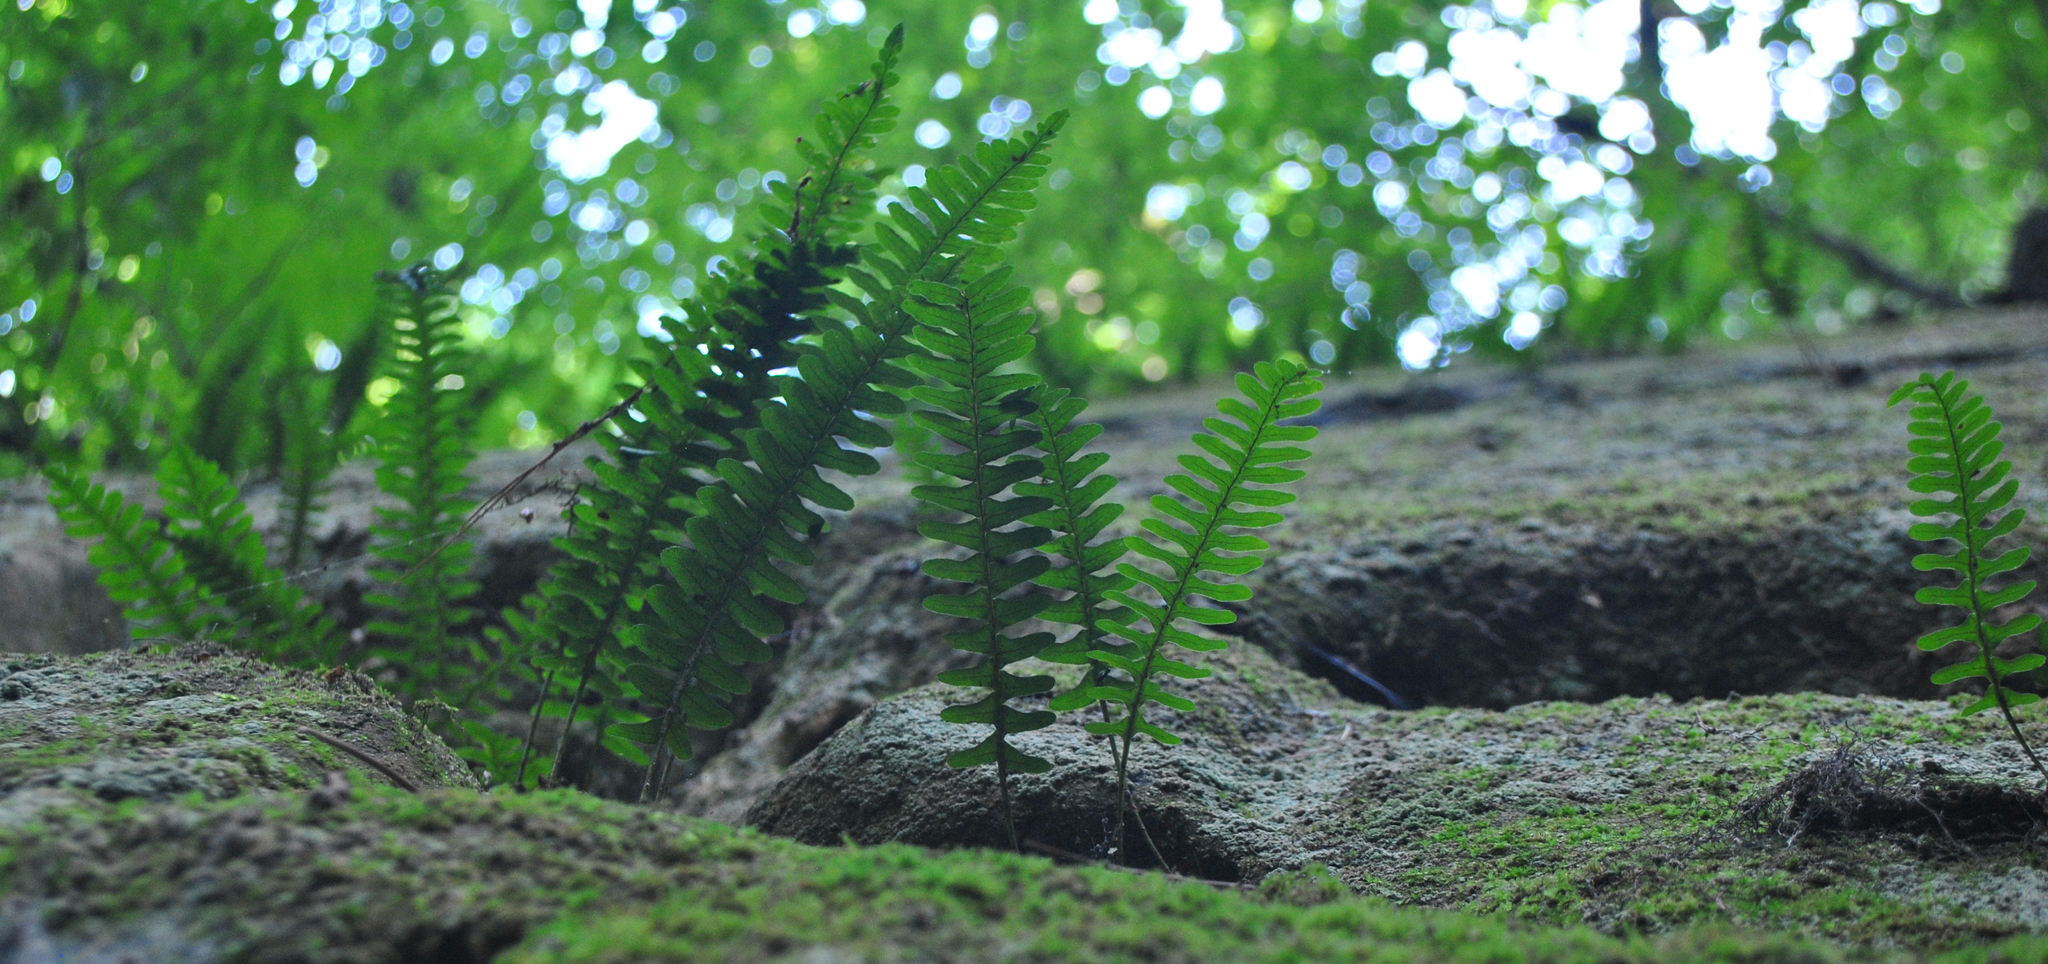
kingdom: Plantae
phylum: Tracheophyta
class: Polypodiopsida
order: Polypodiales
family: Polypodiaceae
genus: Polypodium
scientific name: Polypodium virginianum
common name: American wall fern
